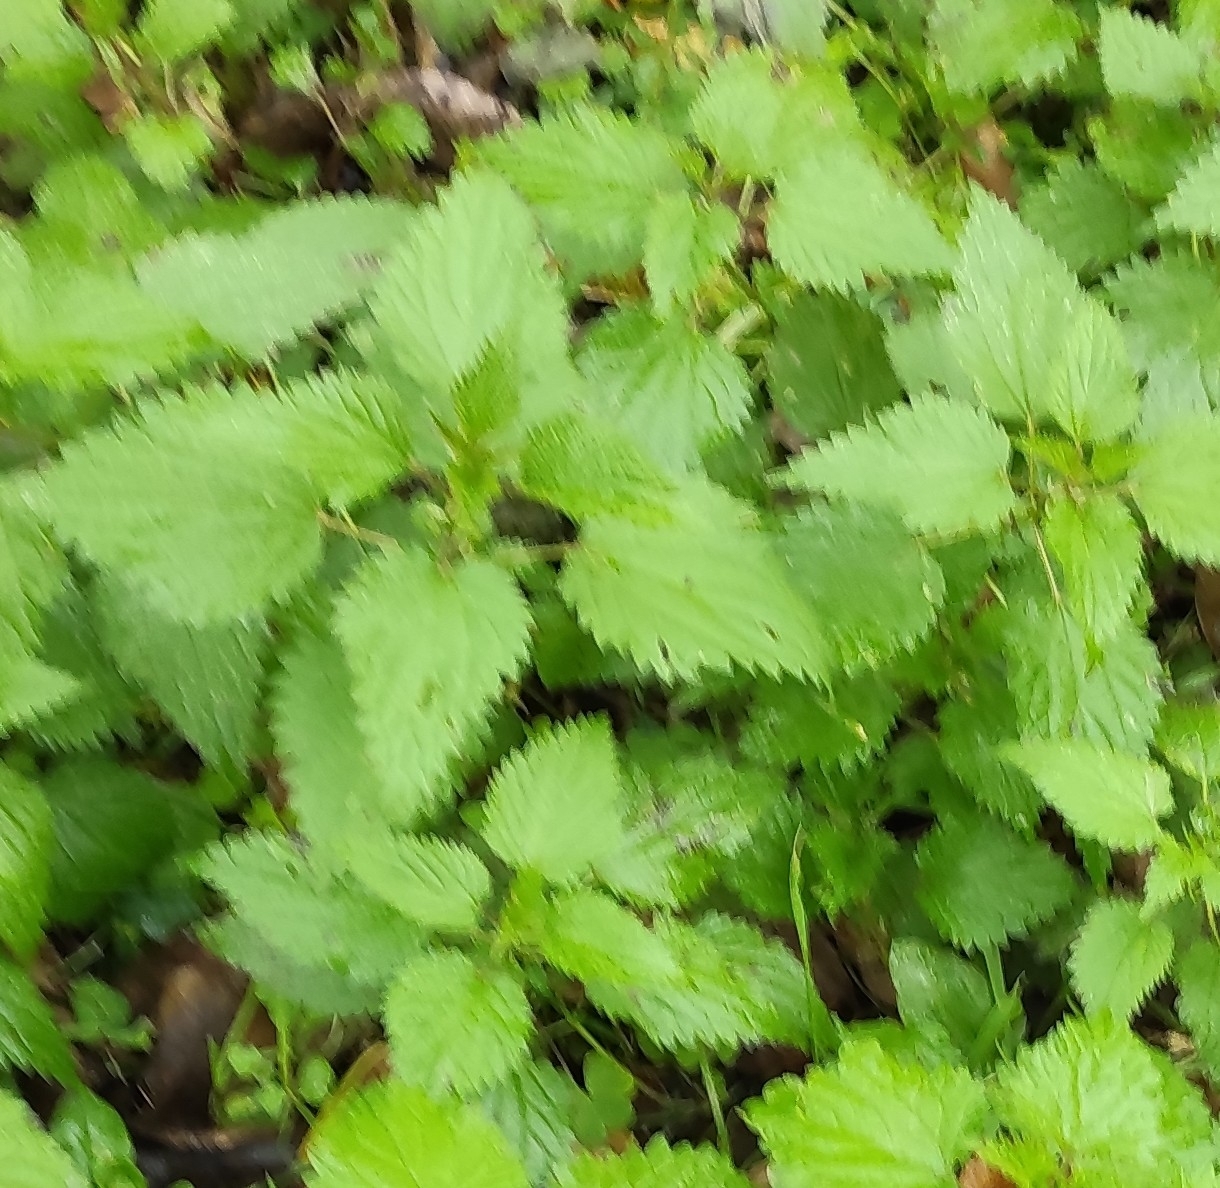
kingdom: Plantae
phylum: Tracheophyta
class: Magnoliopsida
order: Rosales
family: Urticaceae
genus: Urtica
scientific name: Urtica dioica
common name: Common nettle
